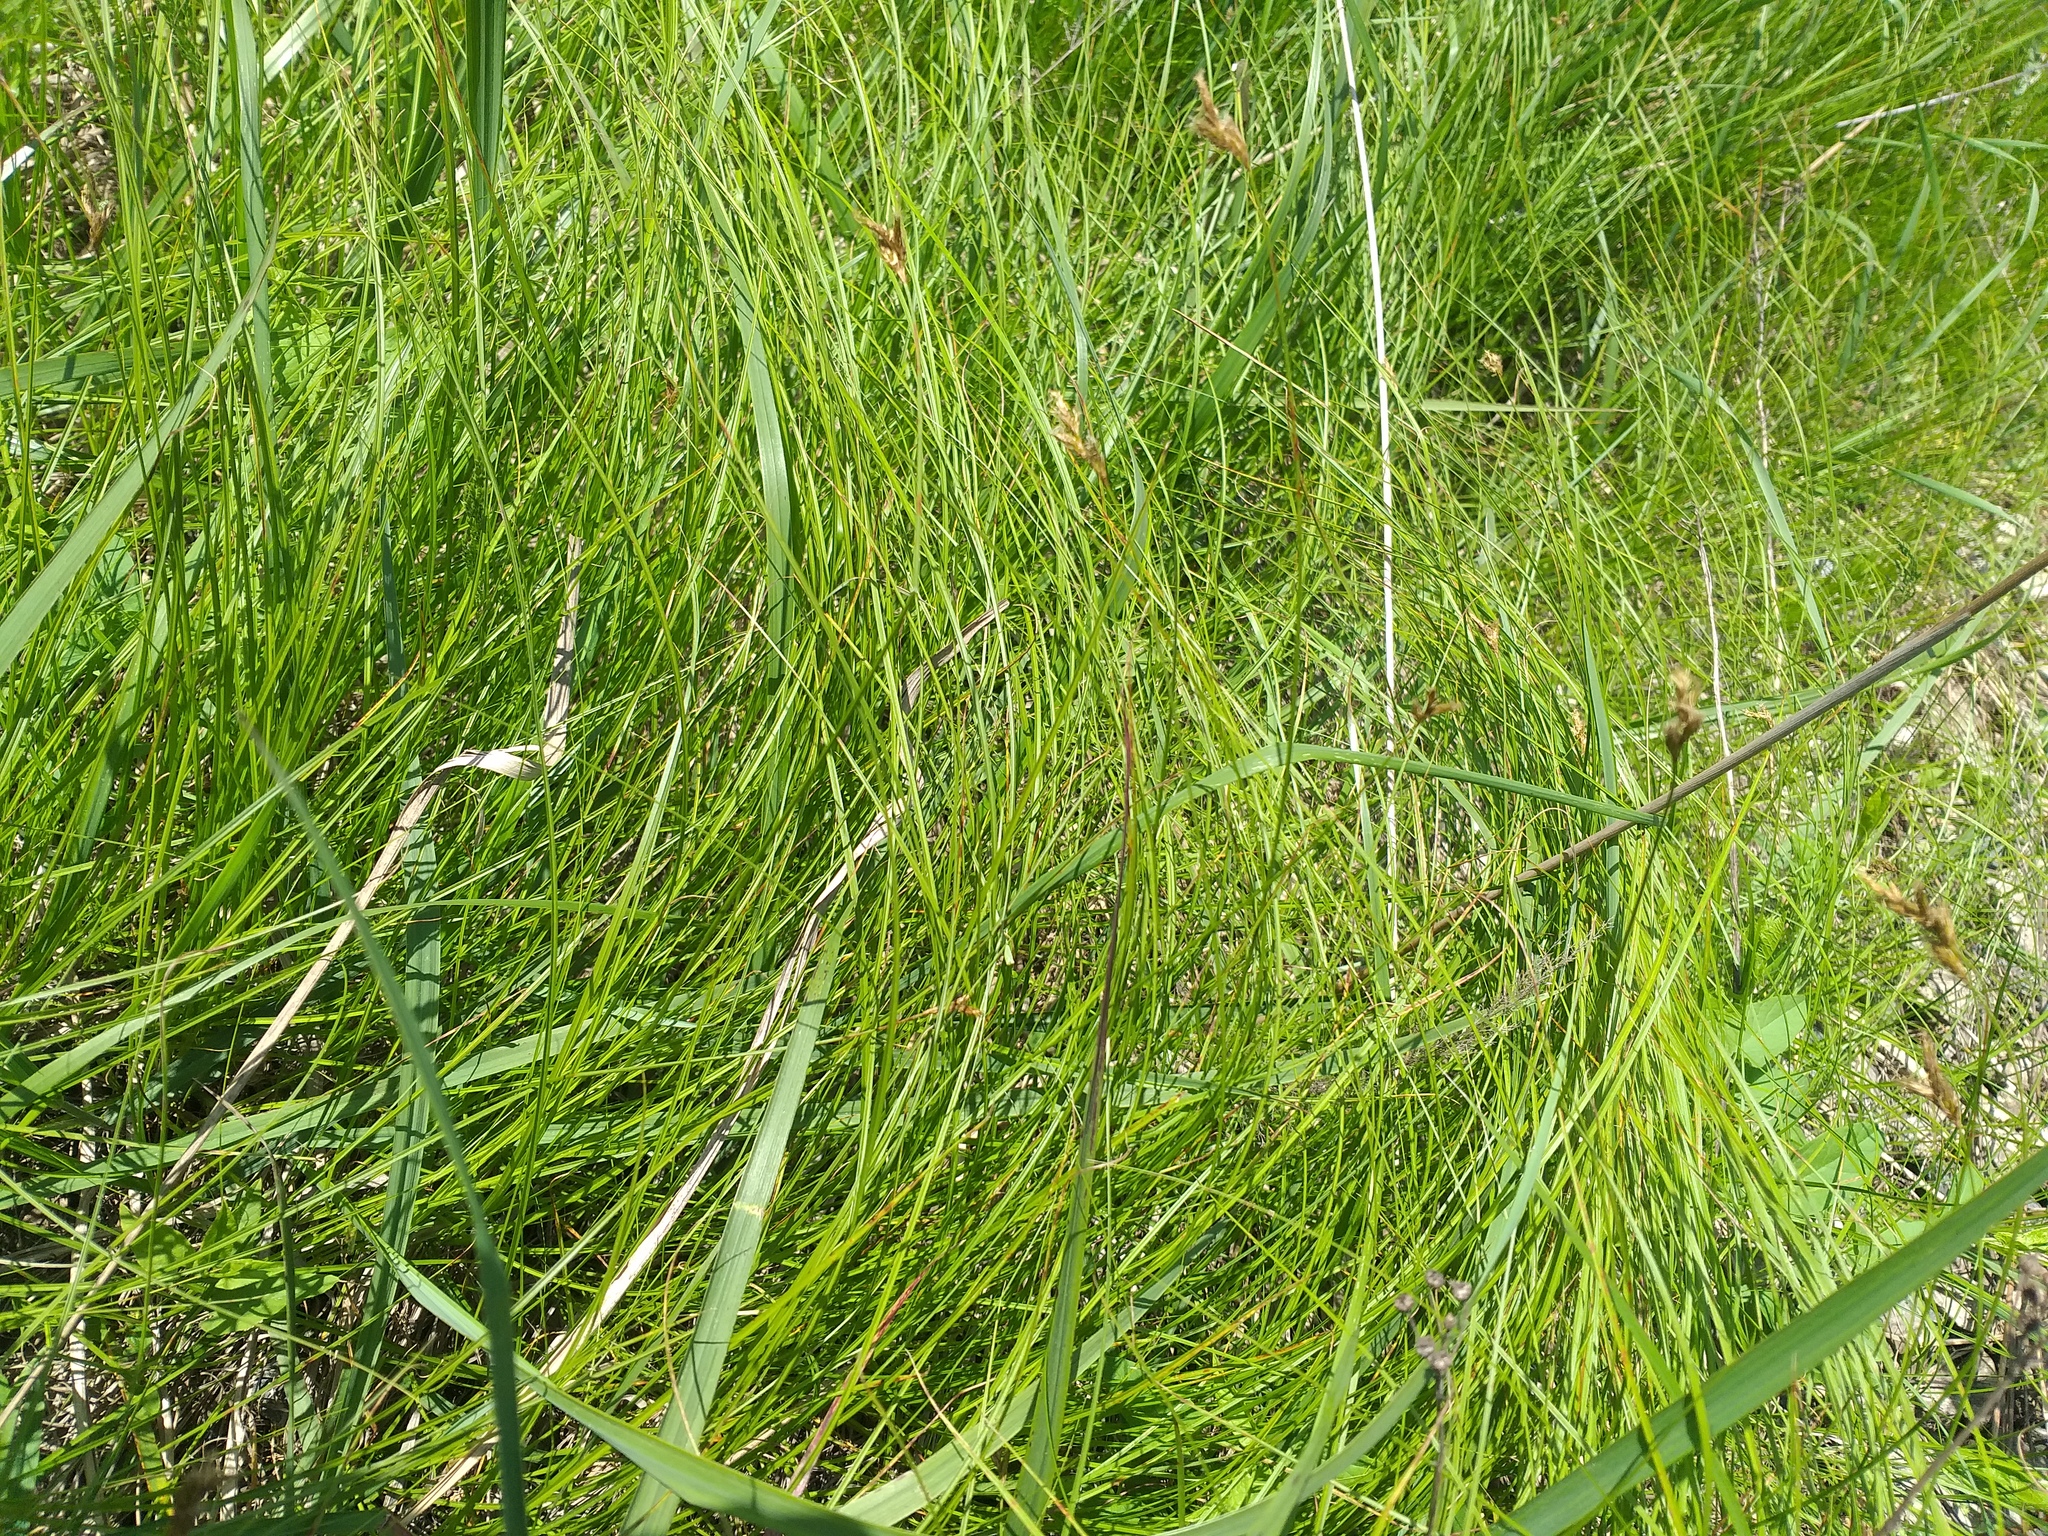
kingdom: Plantae
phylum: Tracheophyta
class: Liliopsida
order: Poales
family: Cyperaceae
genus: Carex
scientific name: Carex praecox
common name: Early sedge
